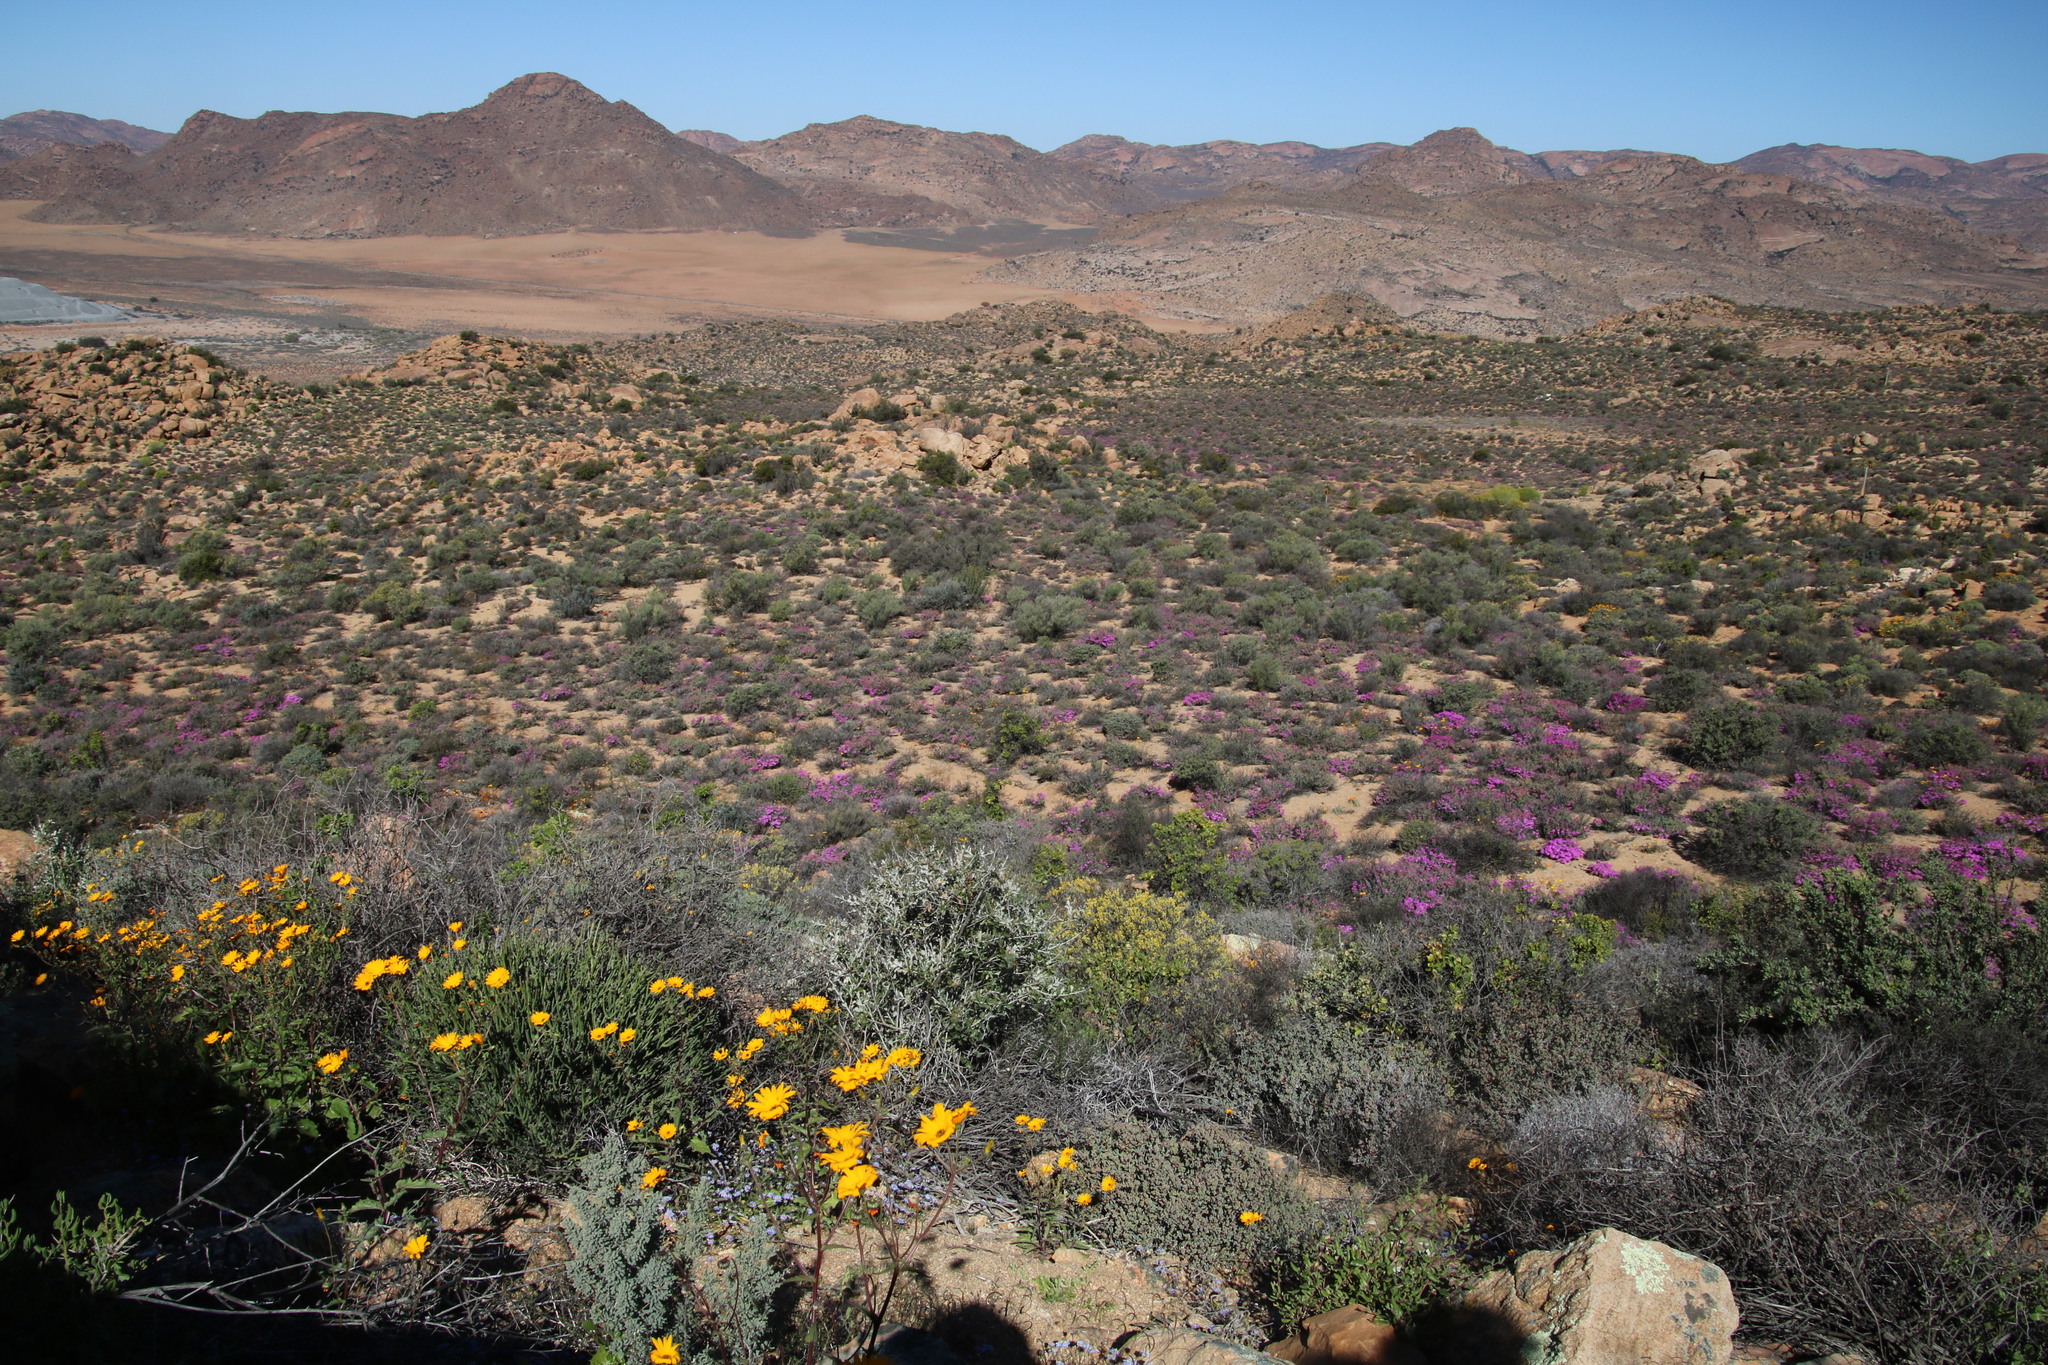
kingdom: Plantae
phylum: Tracheophyta
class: Magnoliopsida
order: Asterales
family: Asteraceae
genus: Osteospermum
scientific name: Osteospermum hyoseroides
